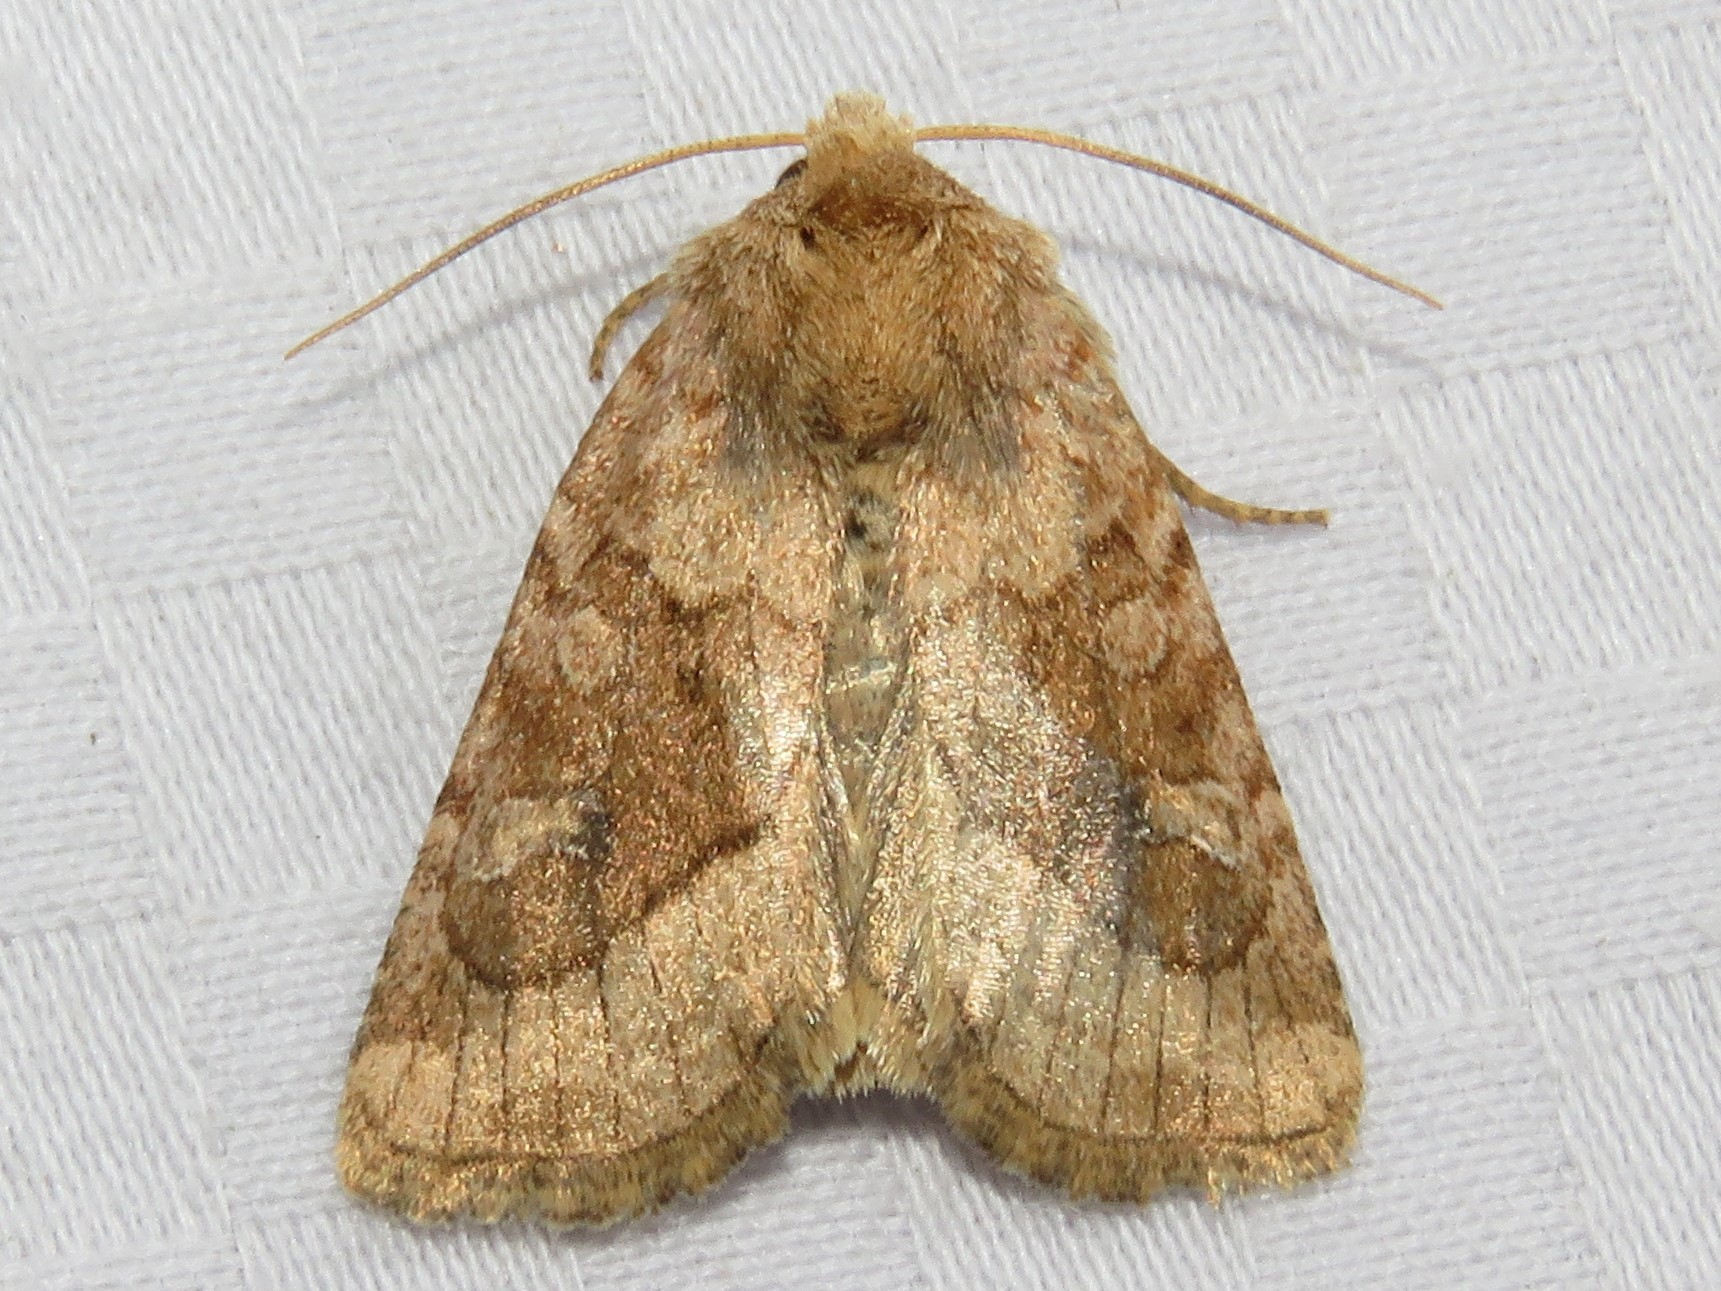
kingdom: Animalia
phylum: Arthropoda
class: Insecta
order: Lepidoptera
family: Noctuidae
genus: Lacinipolia
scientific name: Lacinipolia lorea
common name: Bridled arches moth
